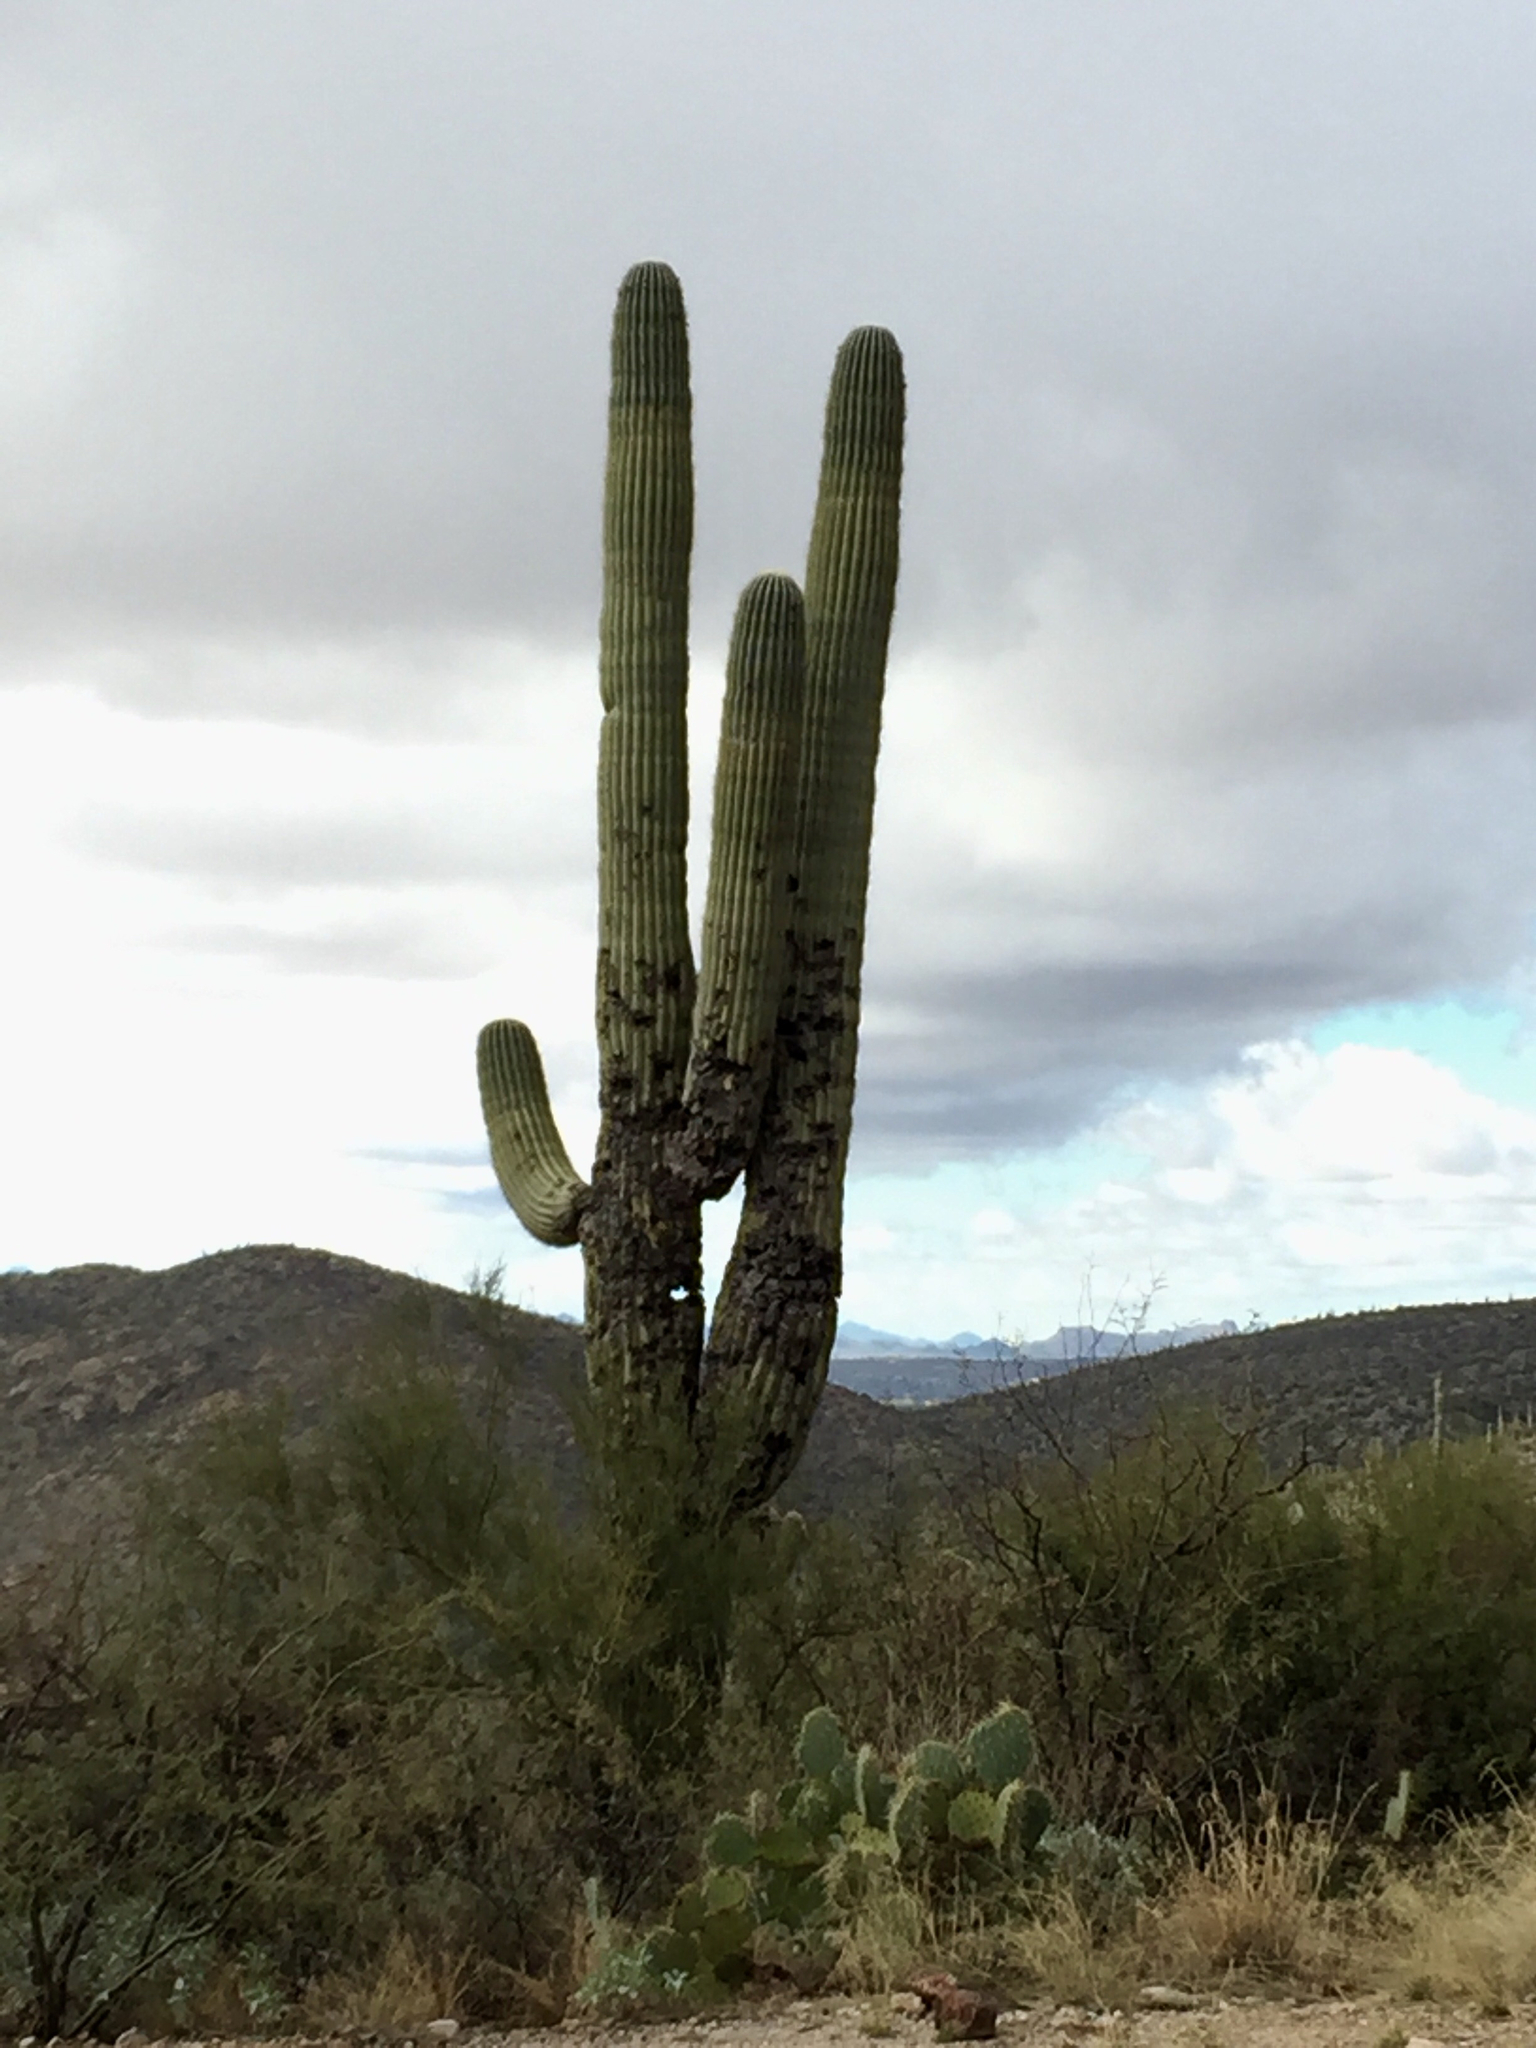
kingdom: Plantae
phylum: Tracheophyta
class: Magnoliopsida
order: Caryophyllales
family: Cactaceae
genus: Carnegiea
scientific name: Carnegiea gigantea
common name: Saguaro
